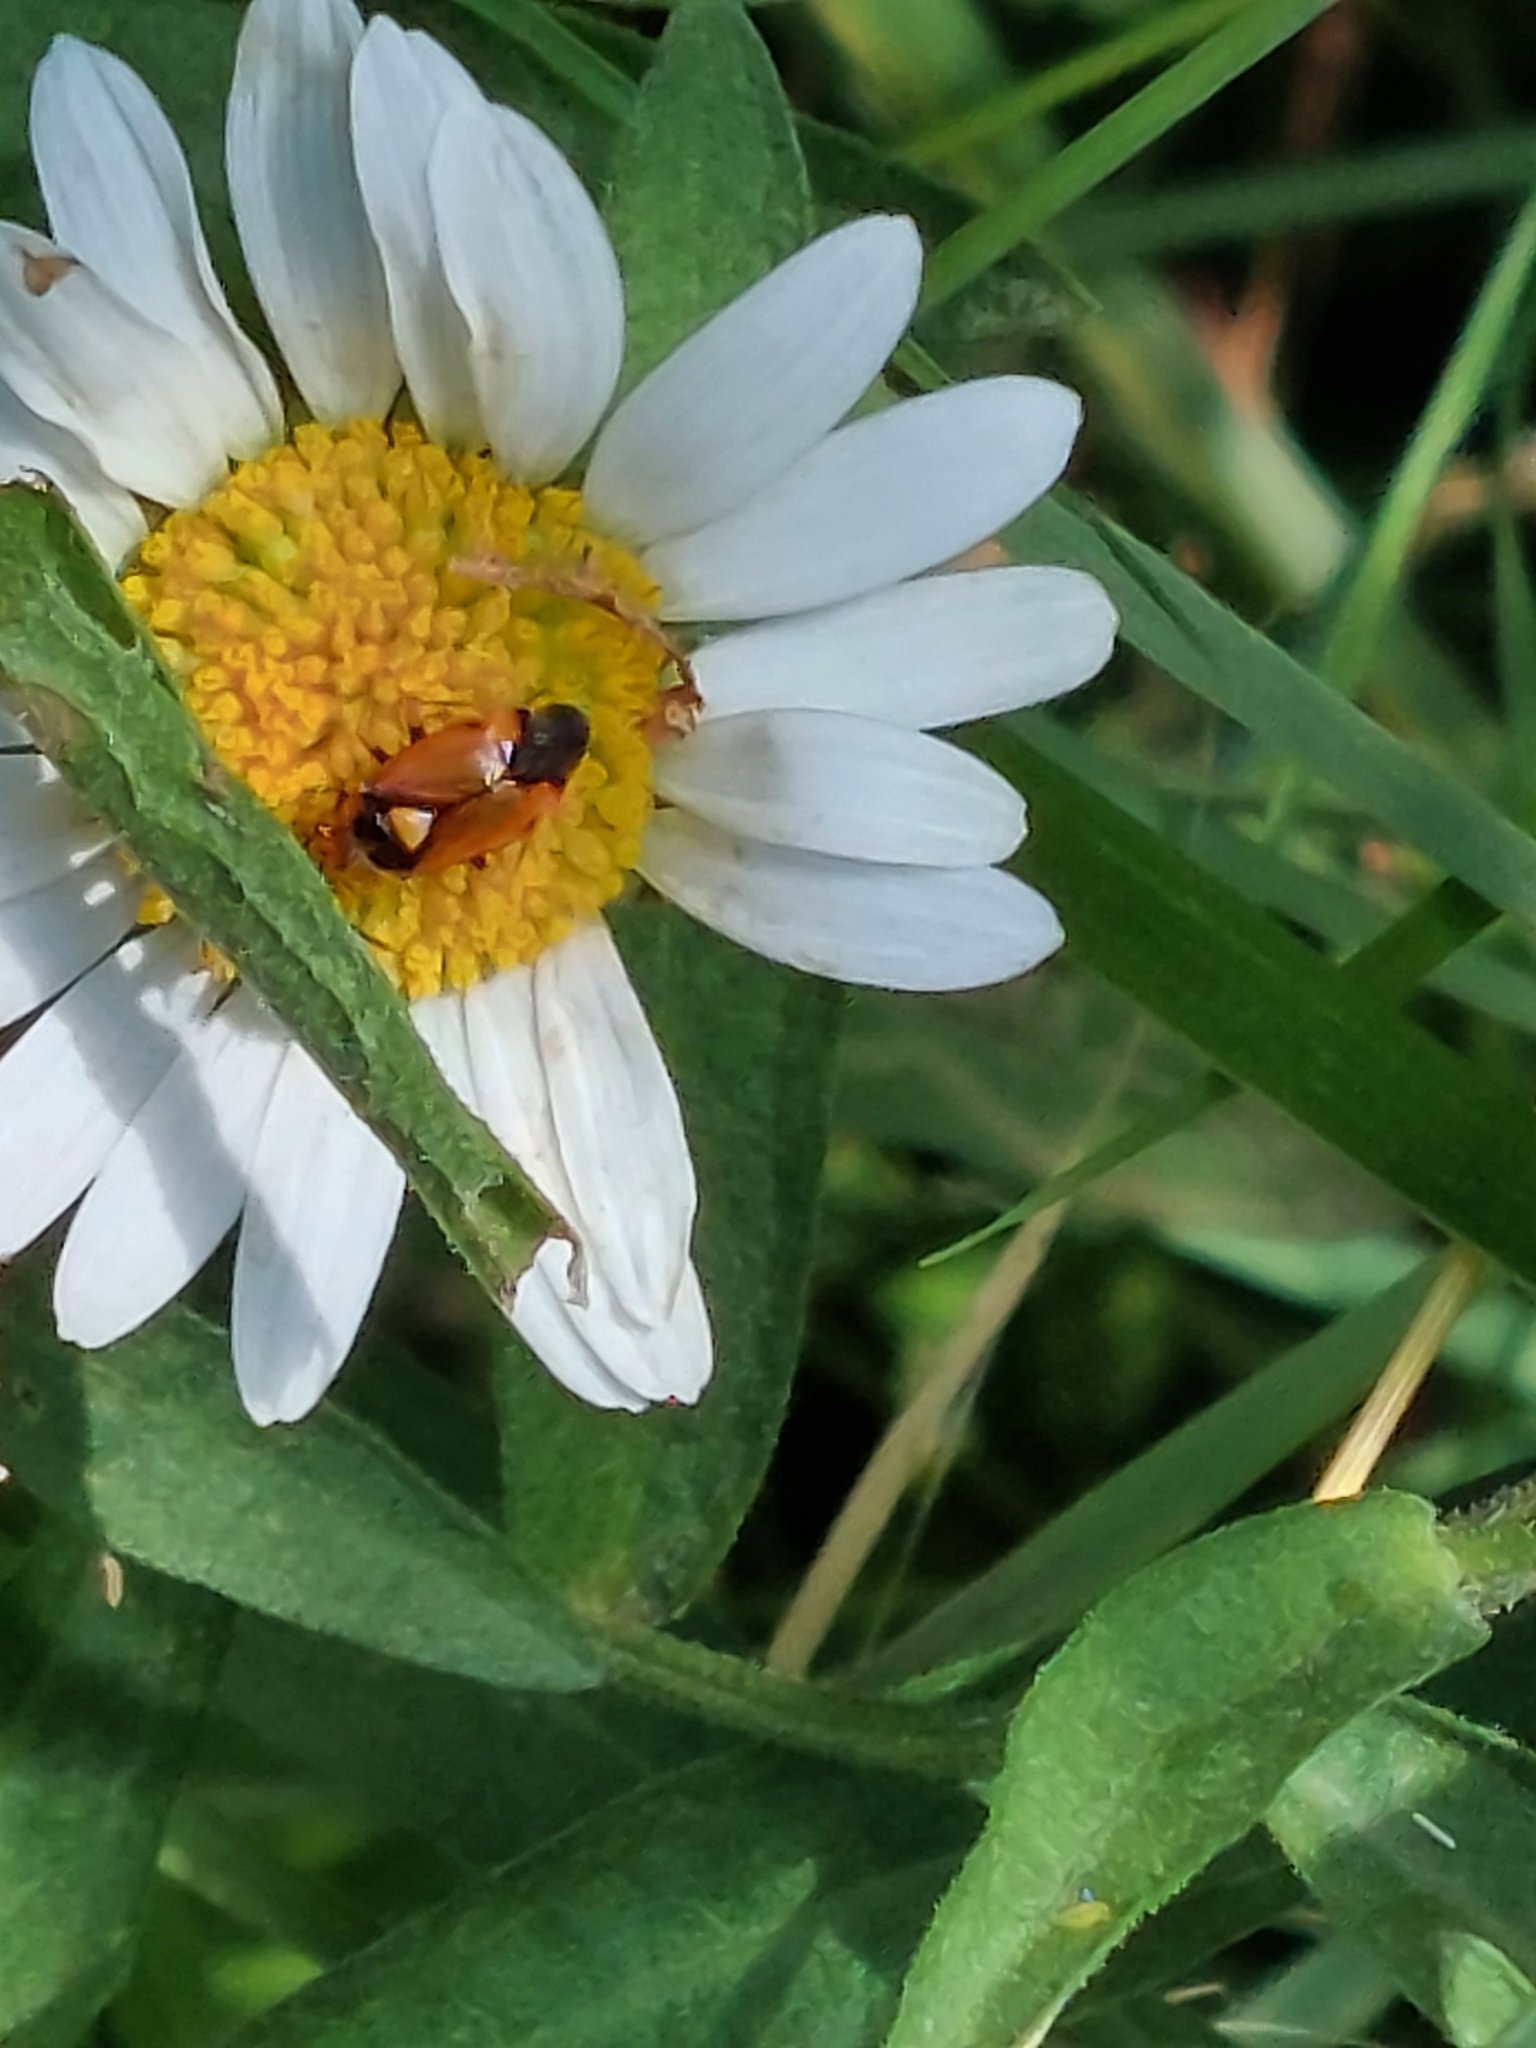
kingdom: Animalia
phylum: Arthropoda
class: Insecta
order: Hemiptera
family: Miridae
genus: Deraeocoris
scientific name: Deraeocoris ruber
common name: Plant bug
